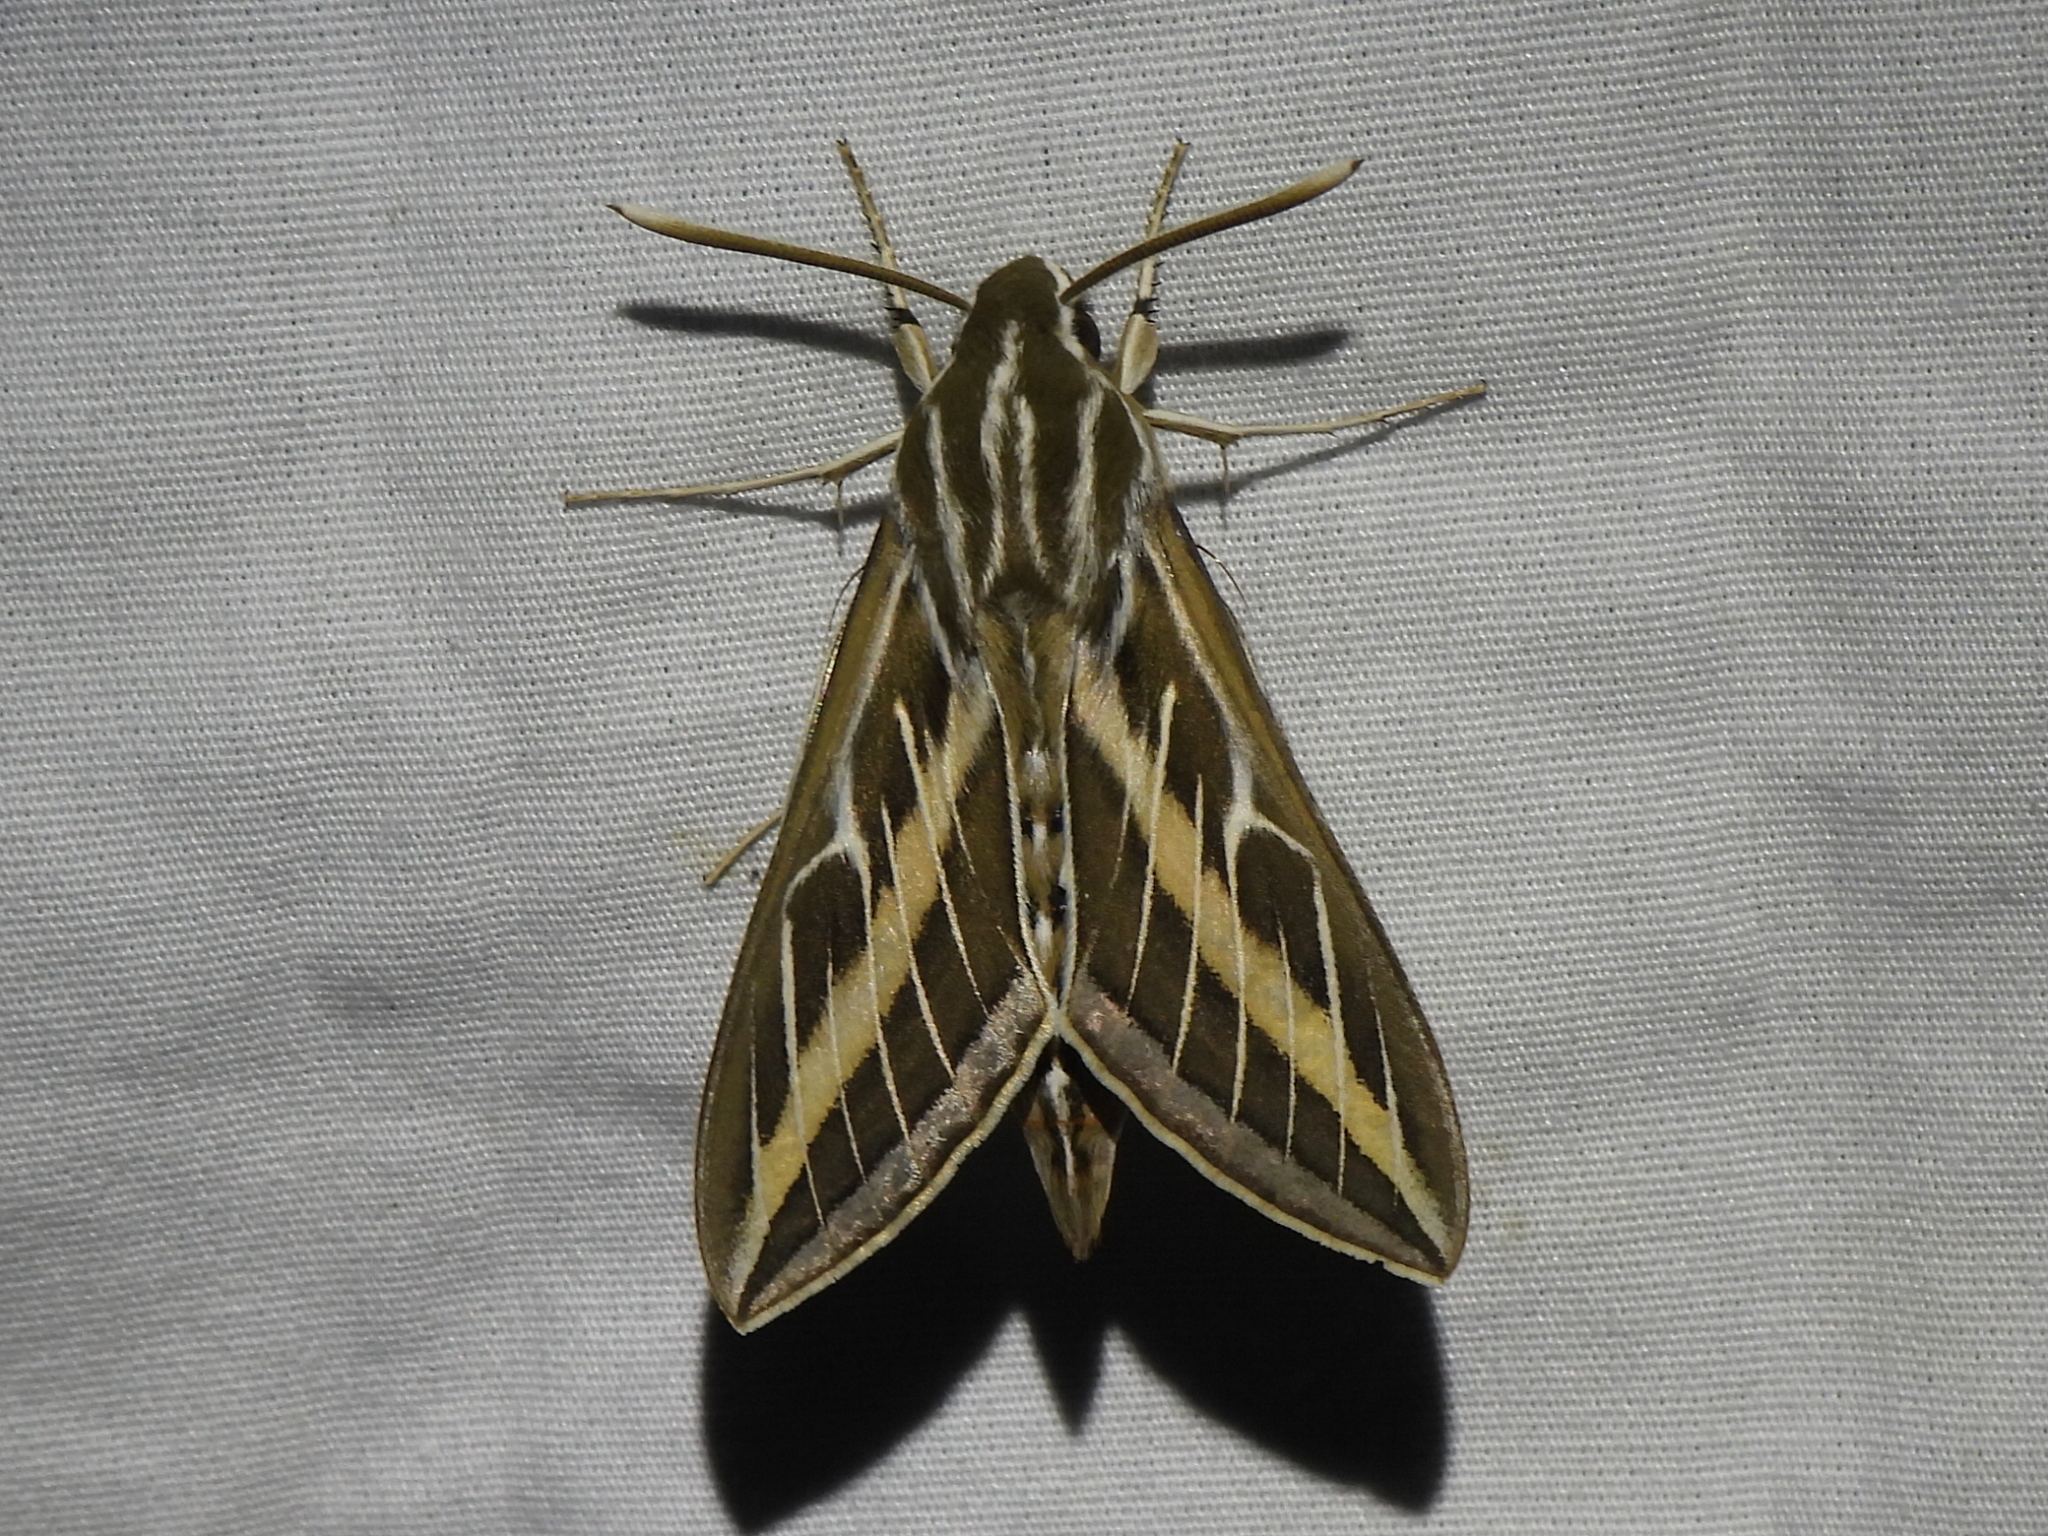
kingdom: Animalia
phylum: Arthropoda
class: Insecta
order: Lepidoptera
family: Sphingidae
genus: Hyles
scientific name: Hyles lineata
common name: White-lined sphinx
